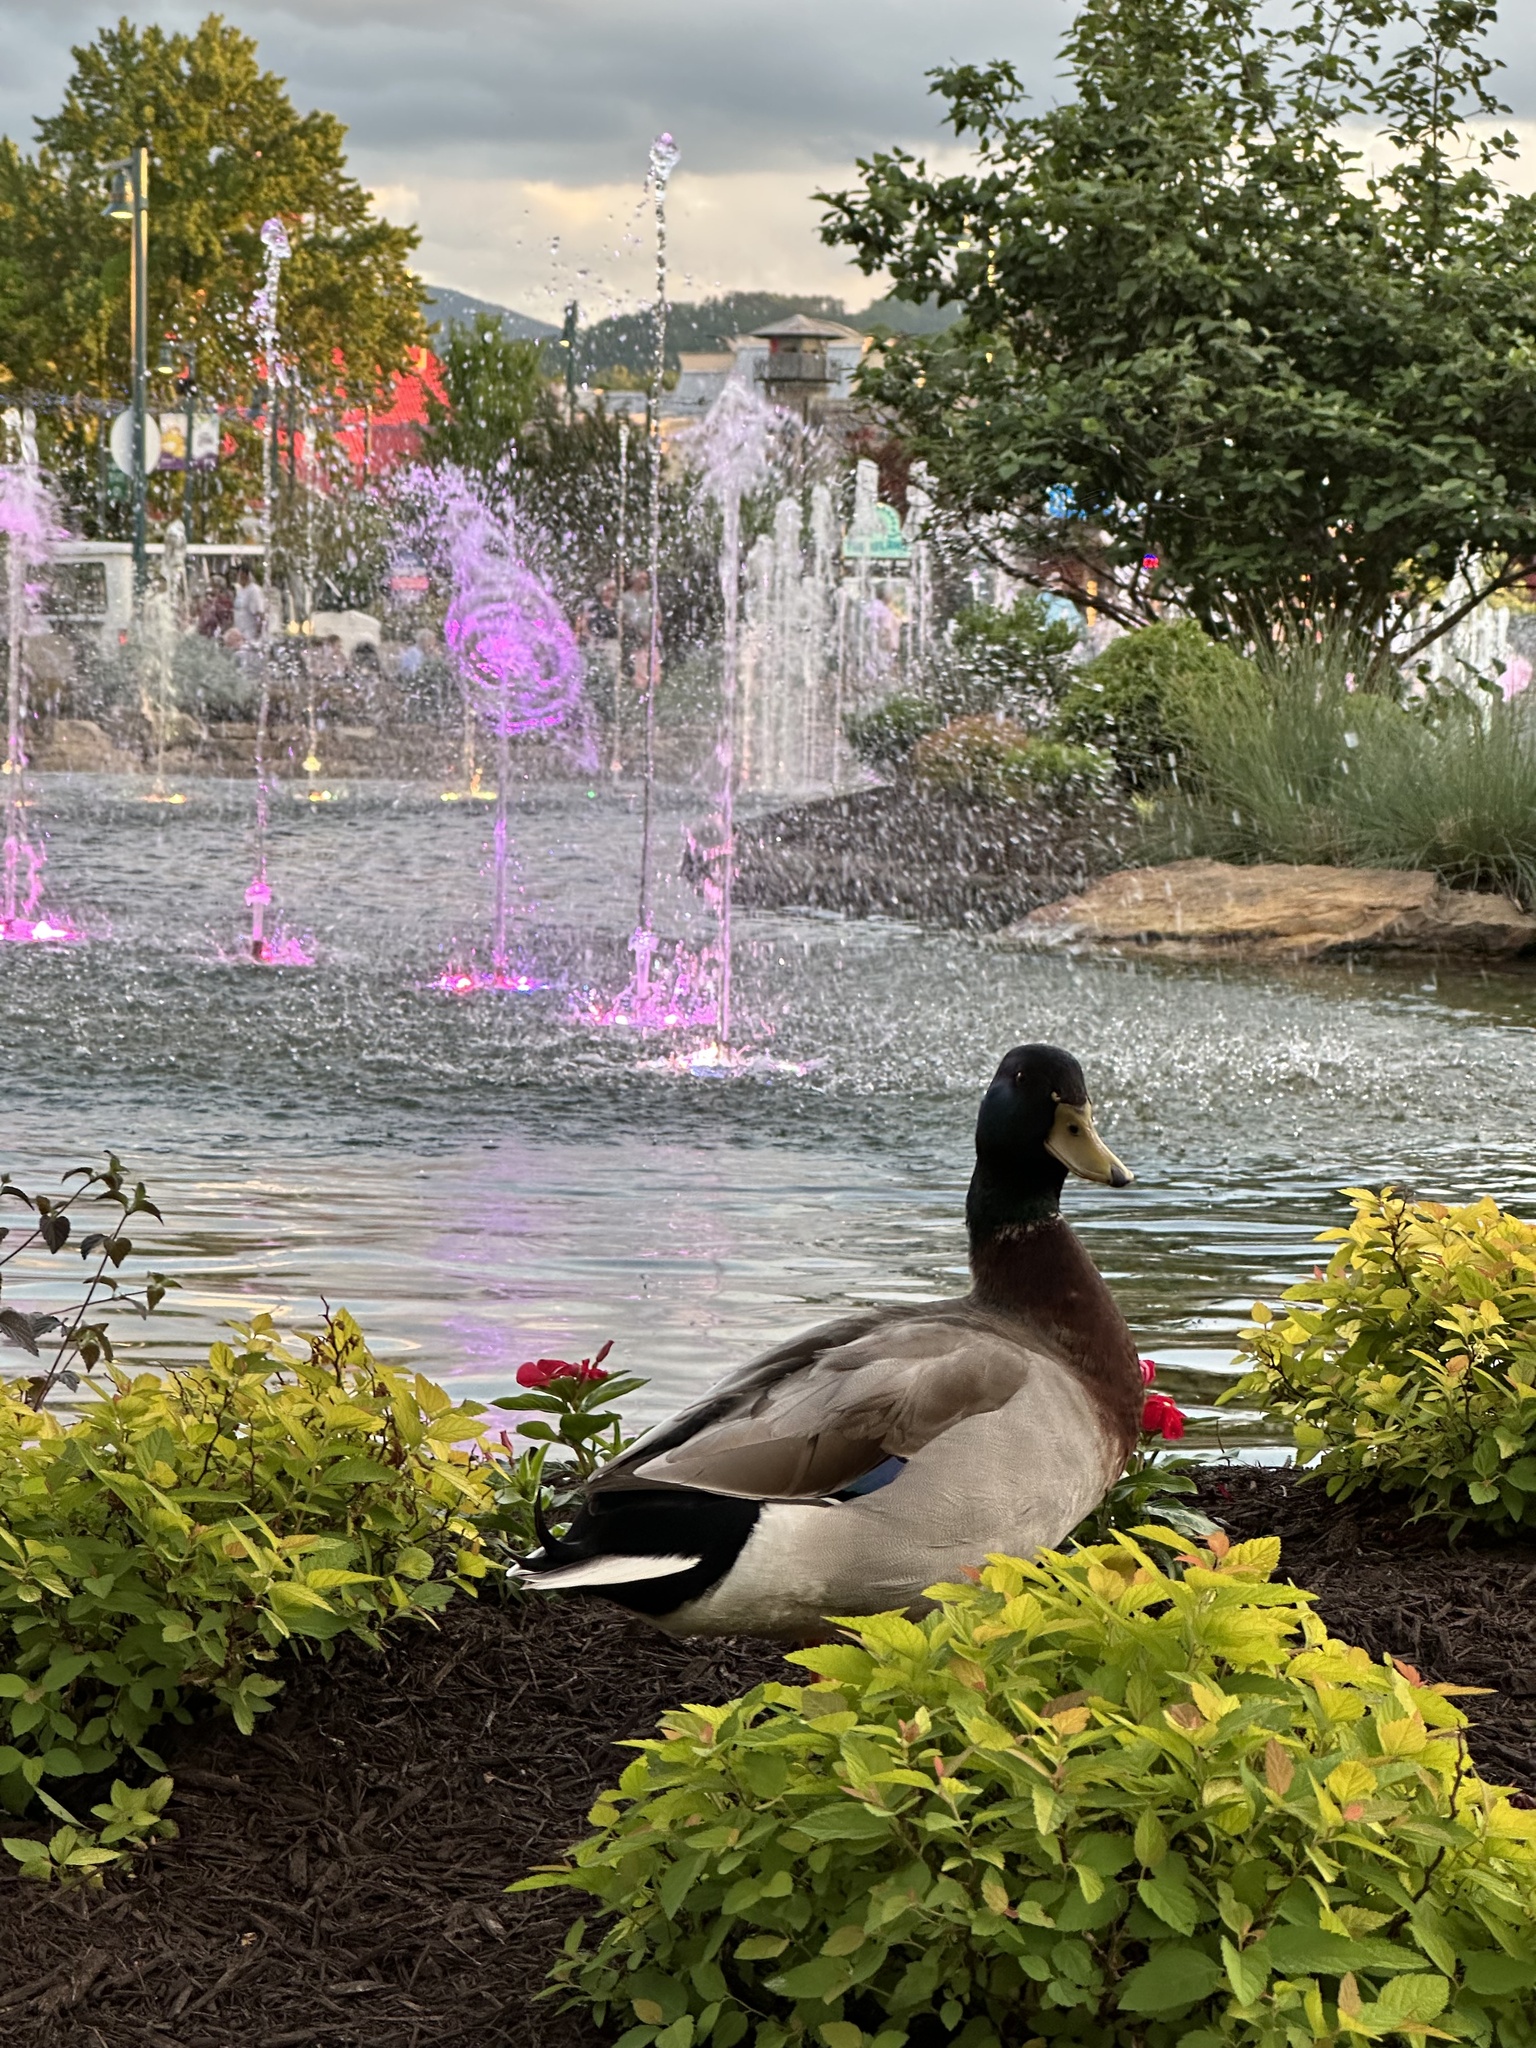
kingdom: Animalia
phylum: Chordata
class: Aves
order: Anseriformes
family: Anatidae
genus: Anas
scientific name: Anas platyrhynchos
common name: Mallard
